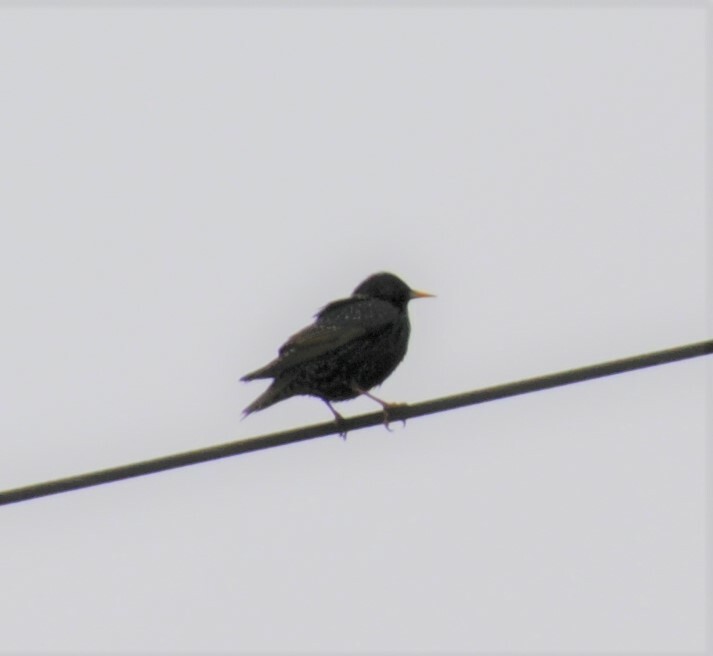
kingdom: Animalia
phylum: Chordata
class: Aves
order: Passeriformes
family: Sturnidae
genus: Sturnus
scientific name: Sturnus vulgaris
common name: Common starling
